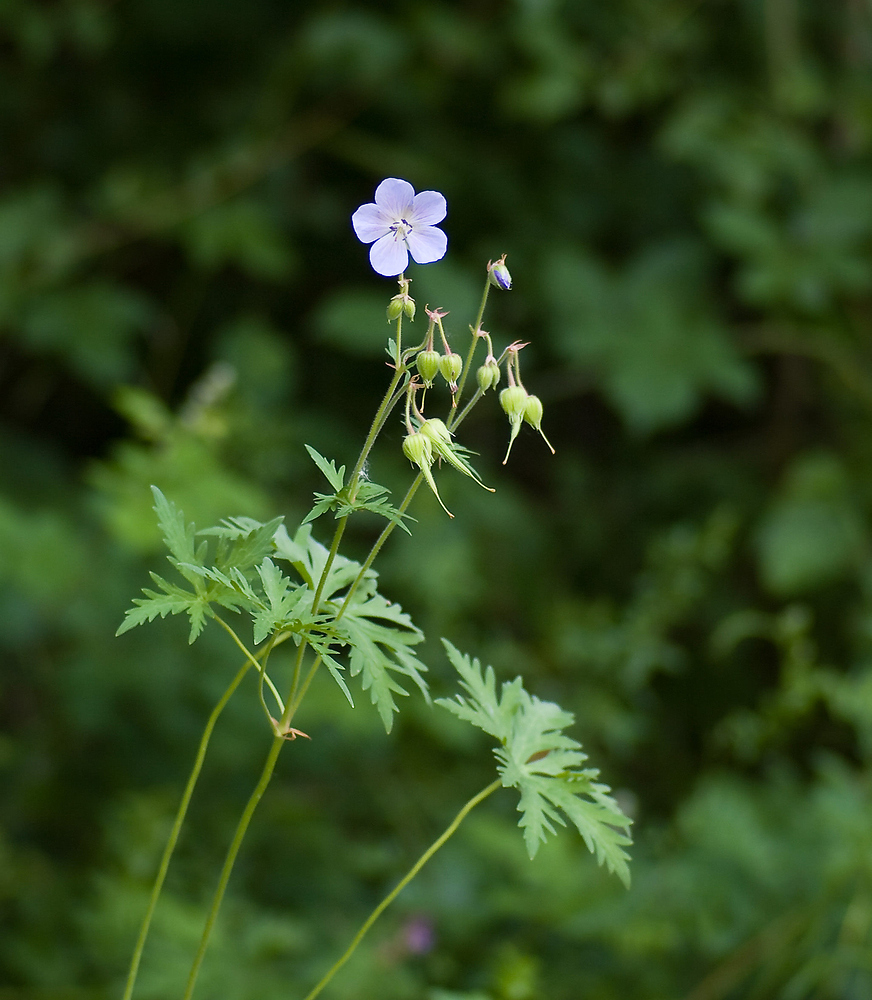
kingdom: Plantae
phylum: Tracheophyta
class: Magnoliopsida
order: Geraniales
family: Geraniaceae
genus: Geranium
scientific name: Geranium pratense
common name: Meadow crane's-bill
